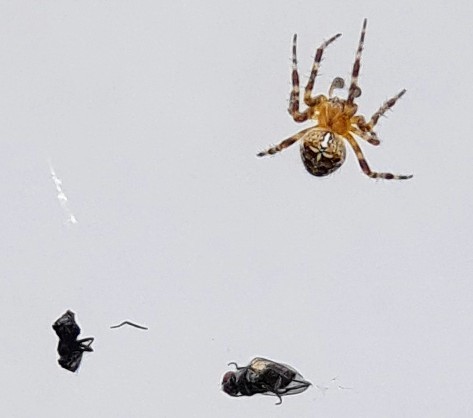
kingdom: Animalia
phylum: Arthropoda
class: Arachnida
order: Araneae
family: Araneidae
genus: Araneus
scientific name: Araneus diadematus
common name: Cross orbweaver
